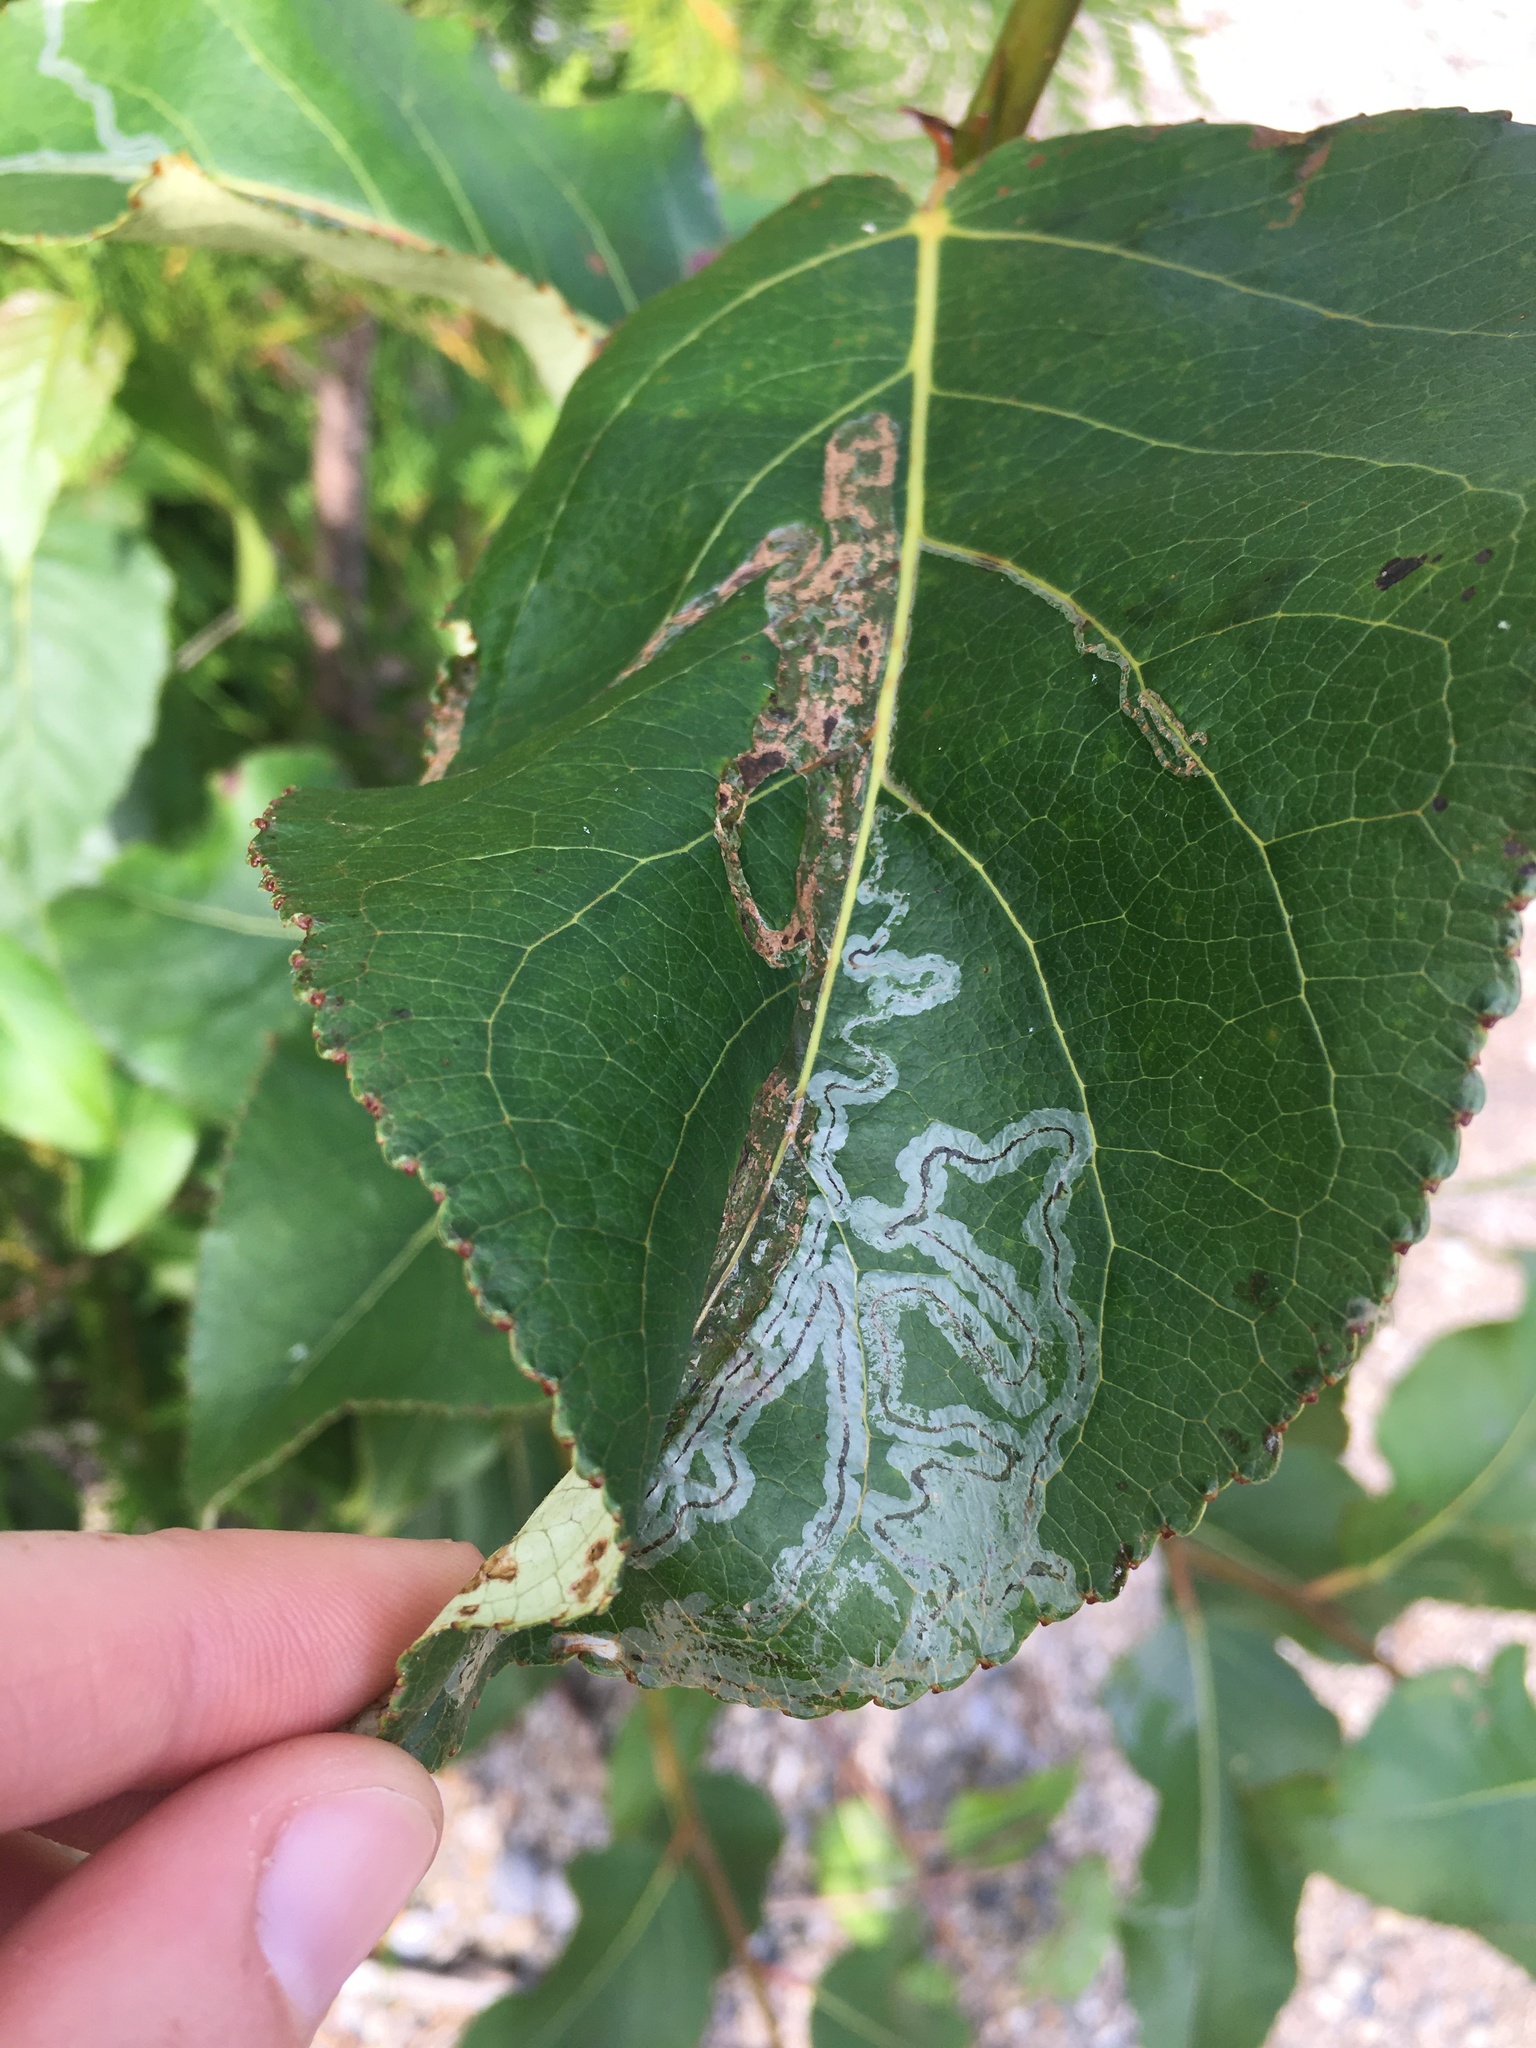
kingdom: Animalia
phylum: Arthropoda
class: Insecta
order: Lepidoptera
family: Gracillariidae
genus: Phyllocnistis
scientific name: Phyllocnistis populiella
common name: Aspen serpentine leafminer moth
